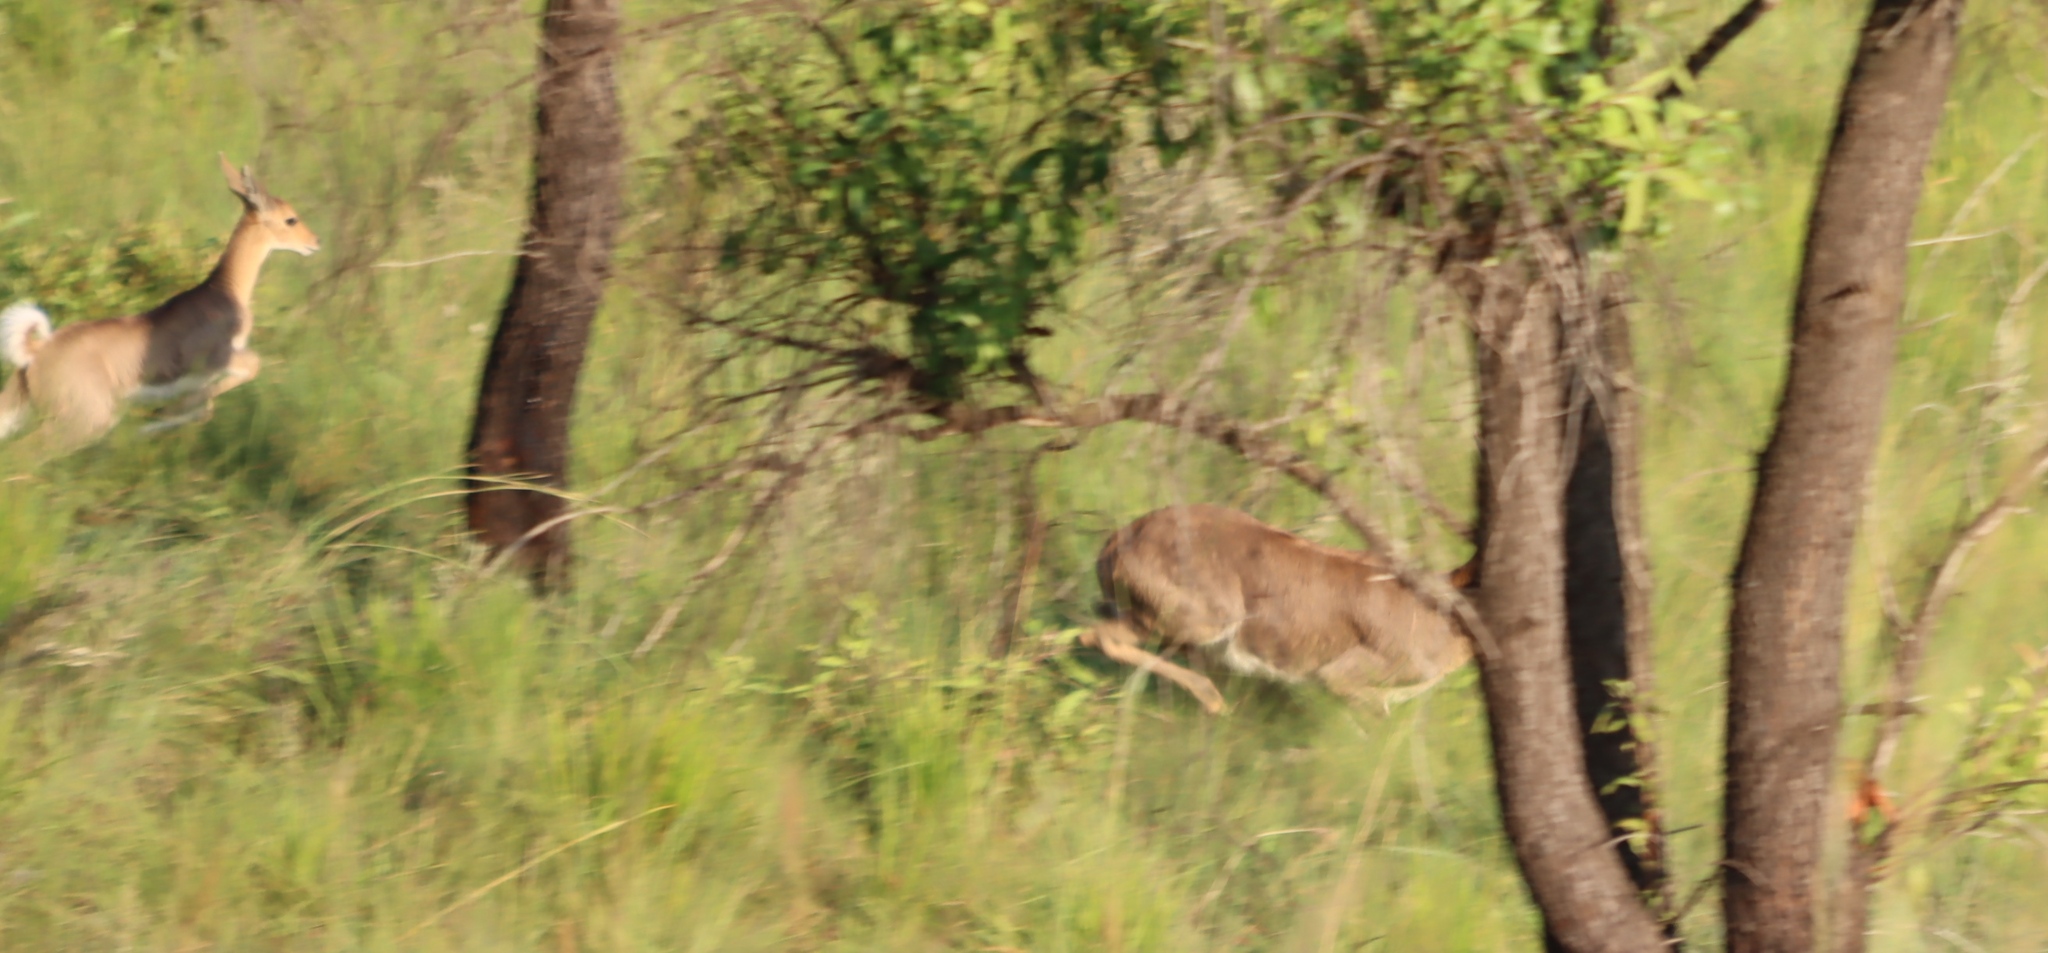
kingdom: Animalia
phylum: Chordata
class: Mammalia
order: Artiodactyla
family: Bovidae
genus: Redunca
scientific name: Redunca fulvorufula
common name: Mountain reedbuck
